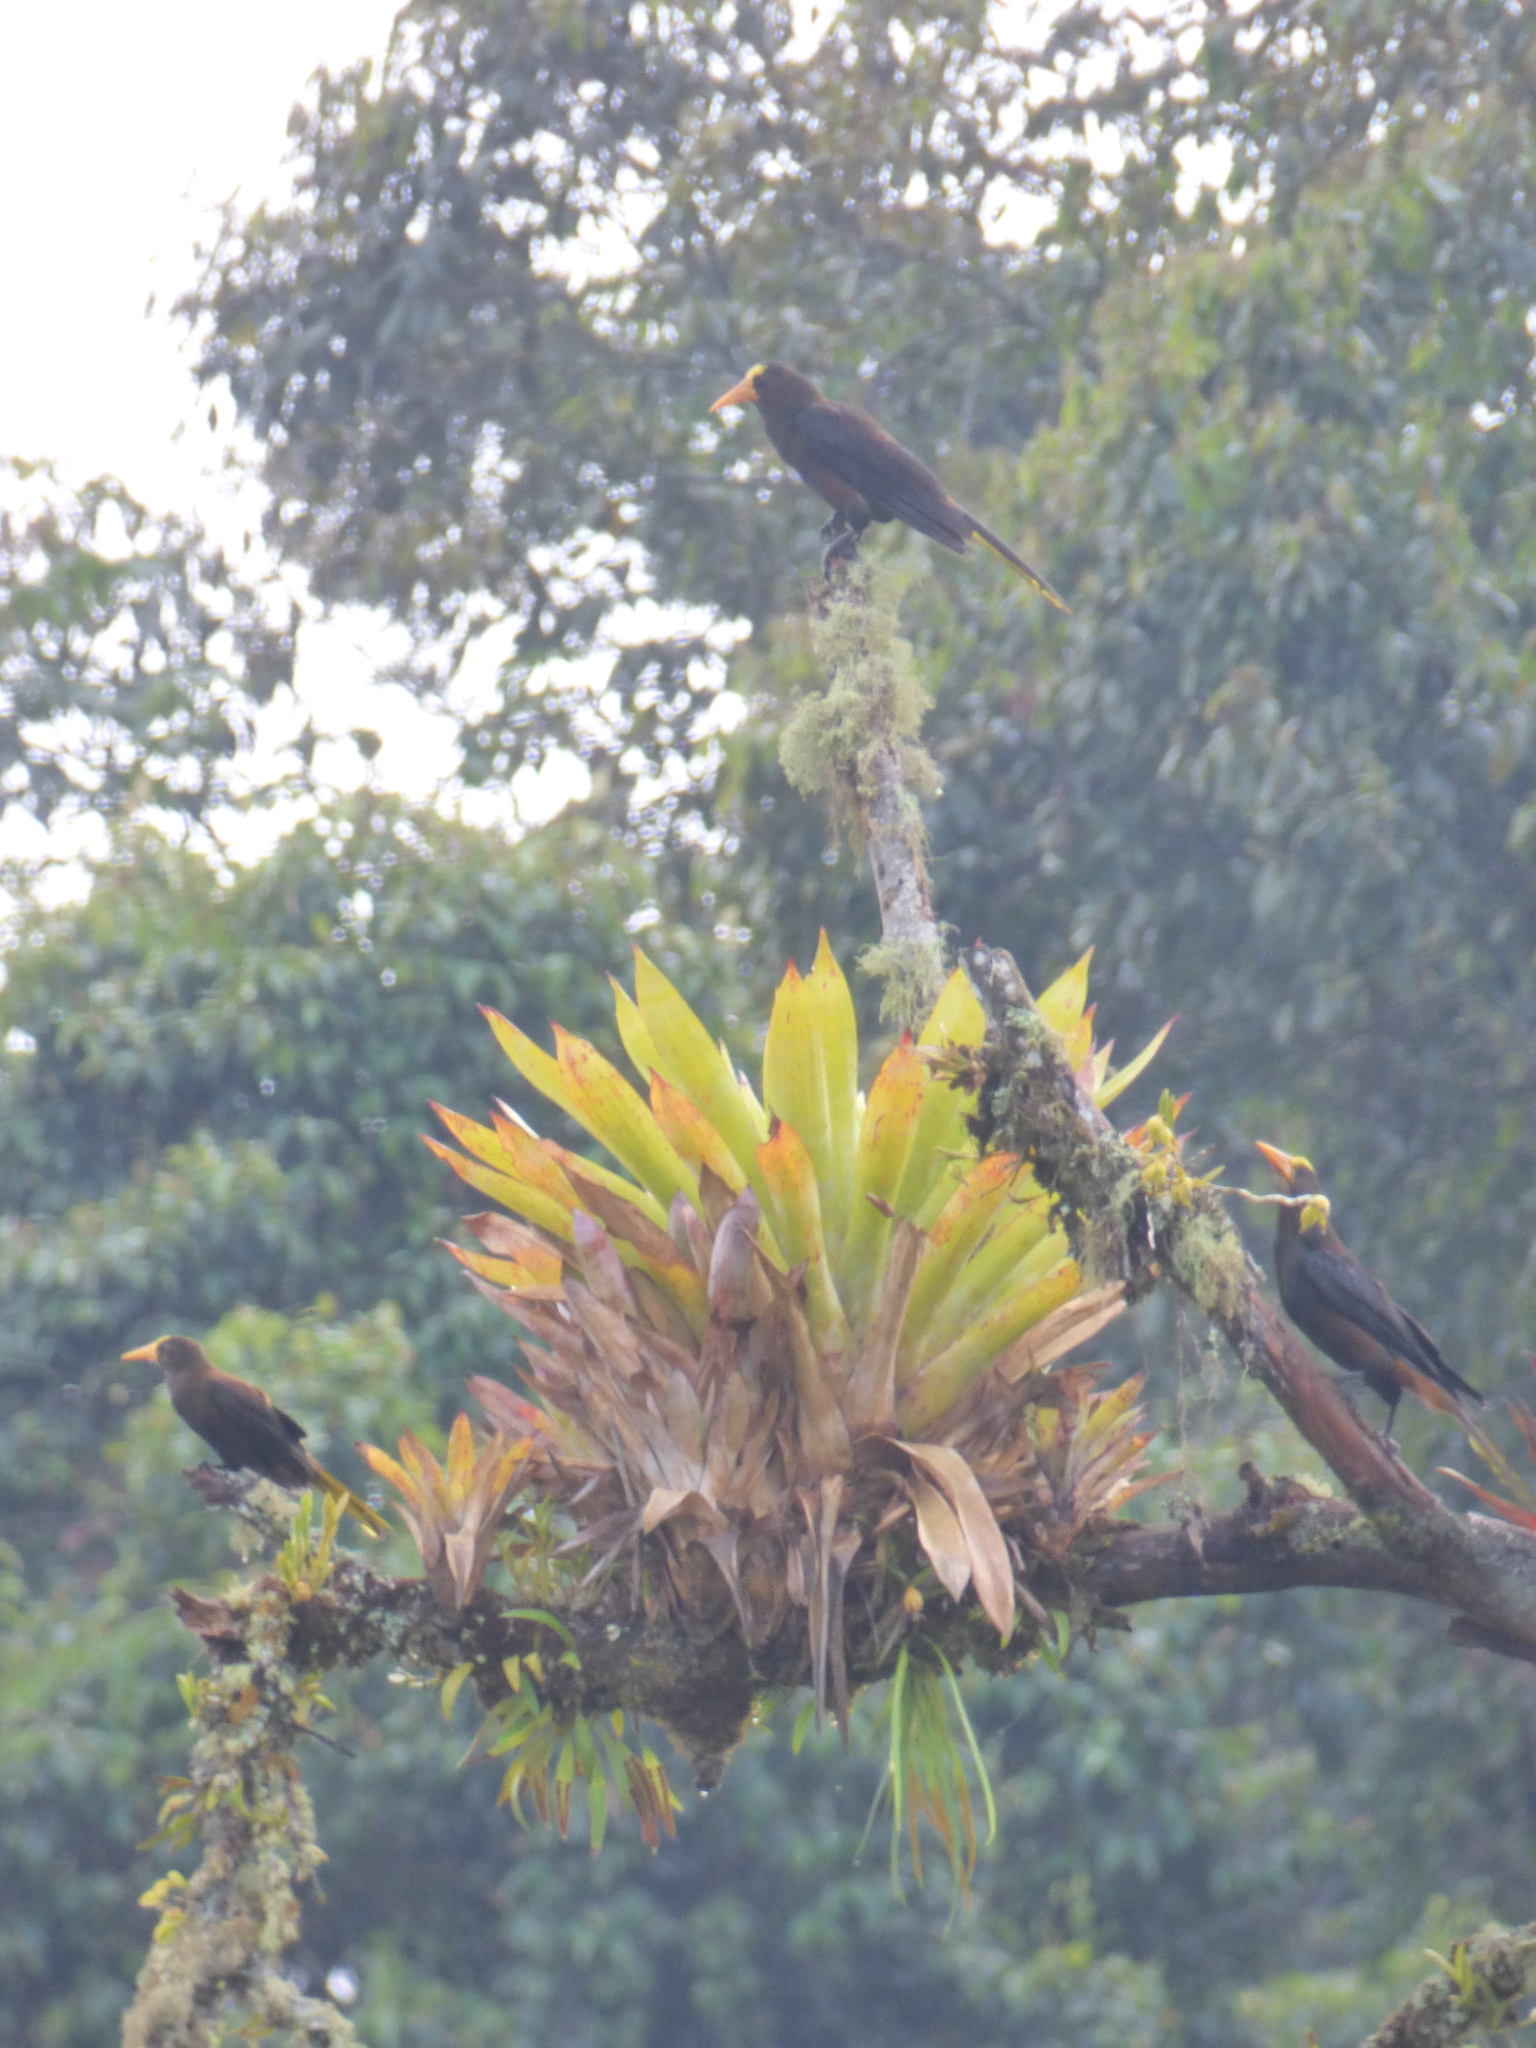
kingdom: Animalia
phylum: Chordata
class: Aves
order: Passeriformes
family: Icteridae
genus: Psarocolius
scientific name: Psarocolius wagleri
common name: Chestnut-headed oropendola
